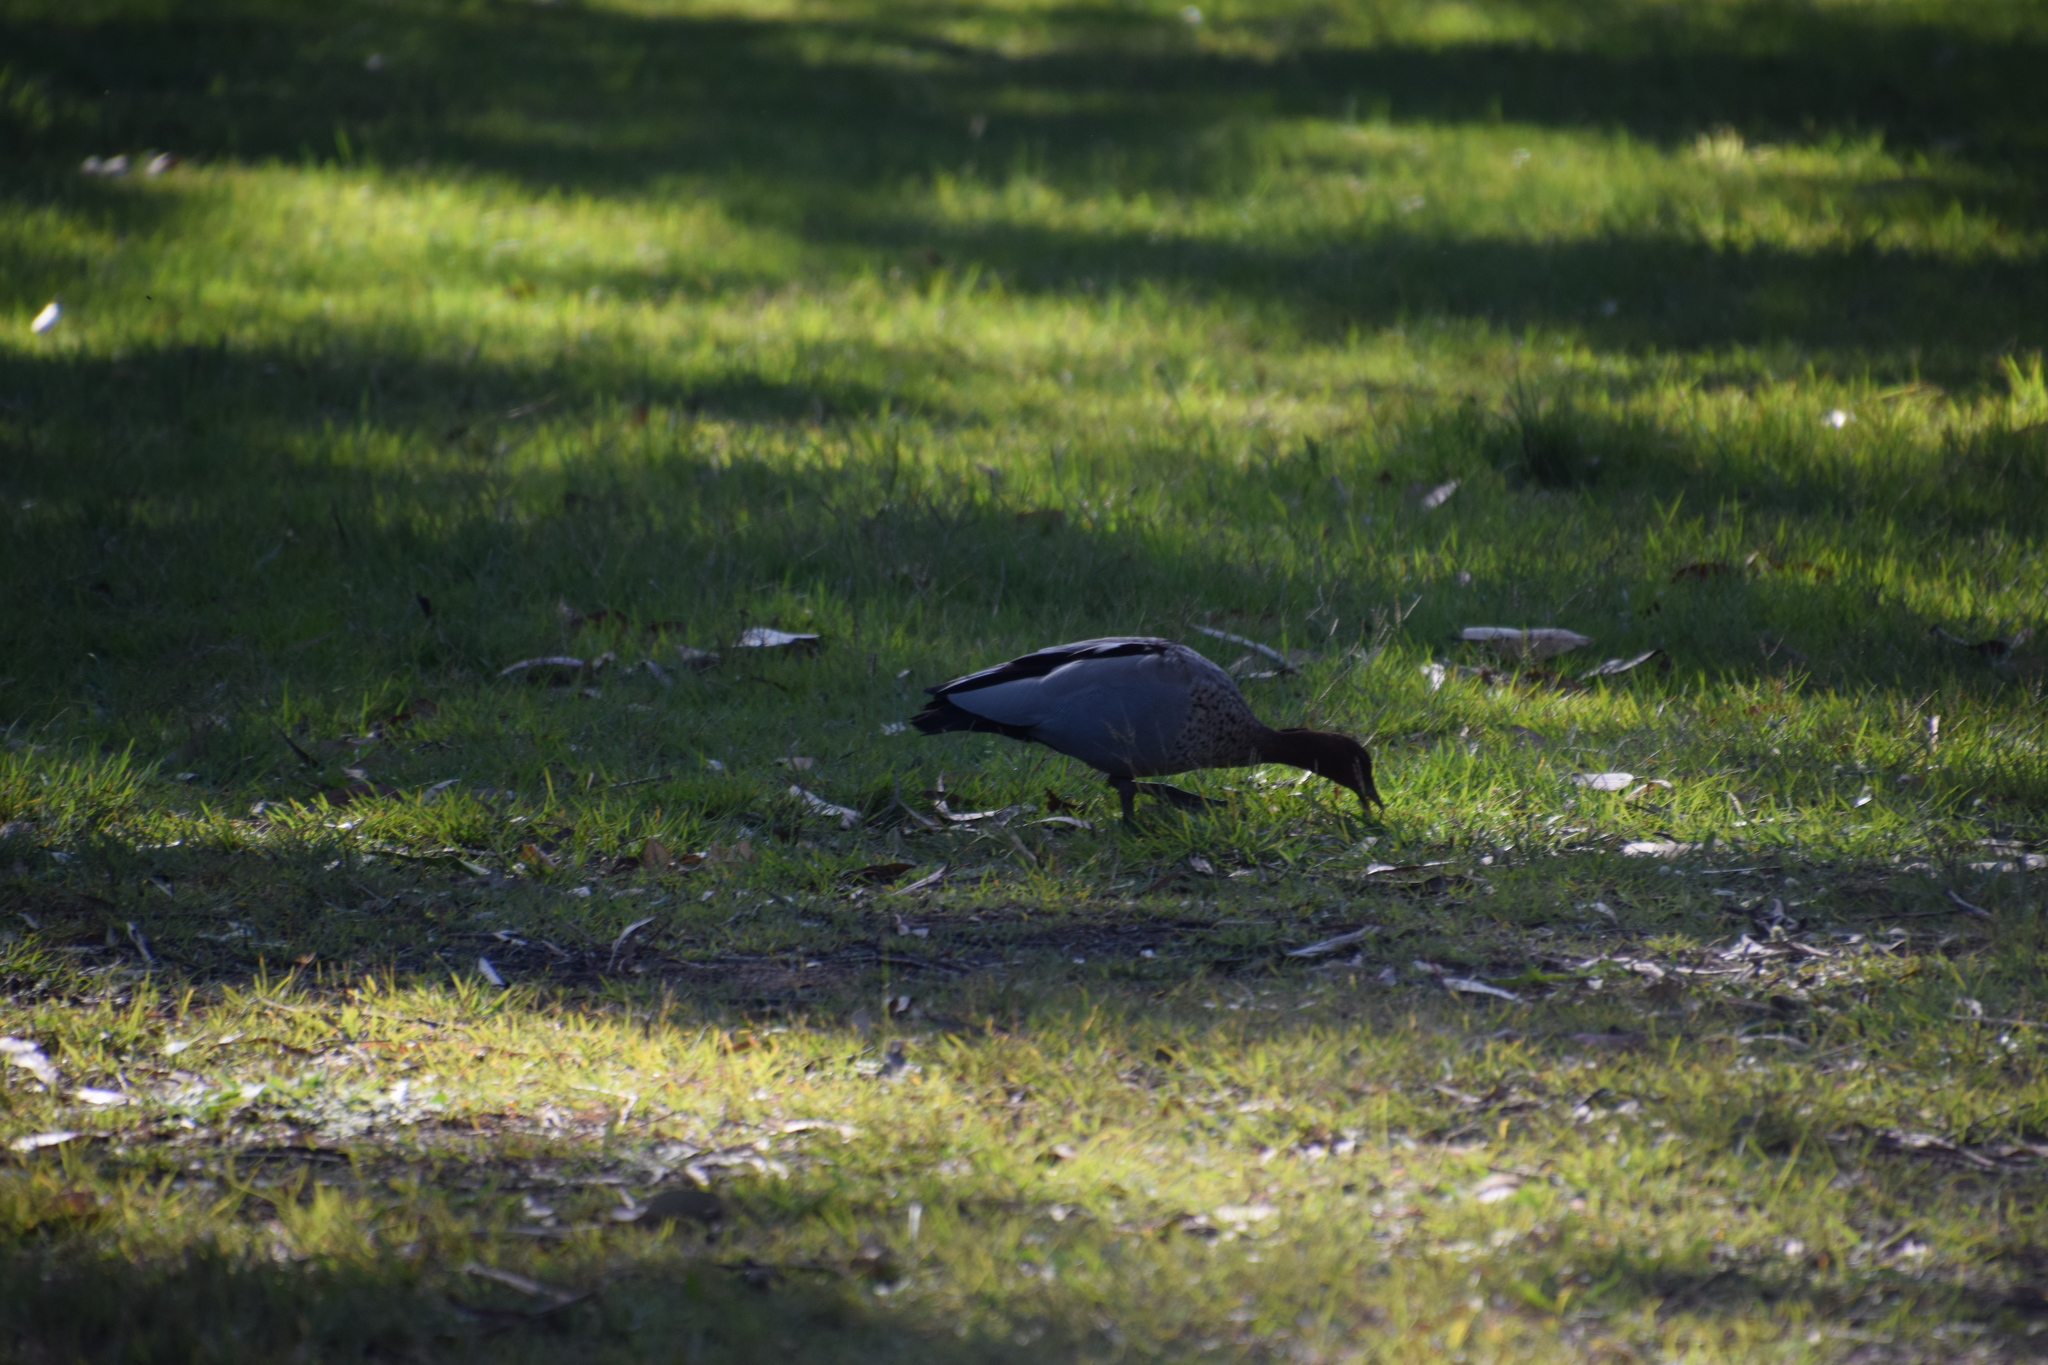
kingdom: Animalia
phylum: Chordata
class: Aves
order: Anseriformes
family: Anatidae
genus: Chenonetta
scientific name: Chenonetta jubata
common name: Maned duck
